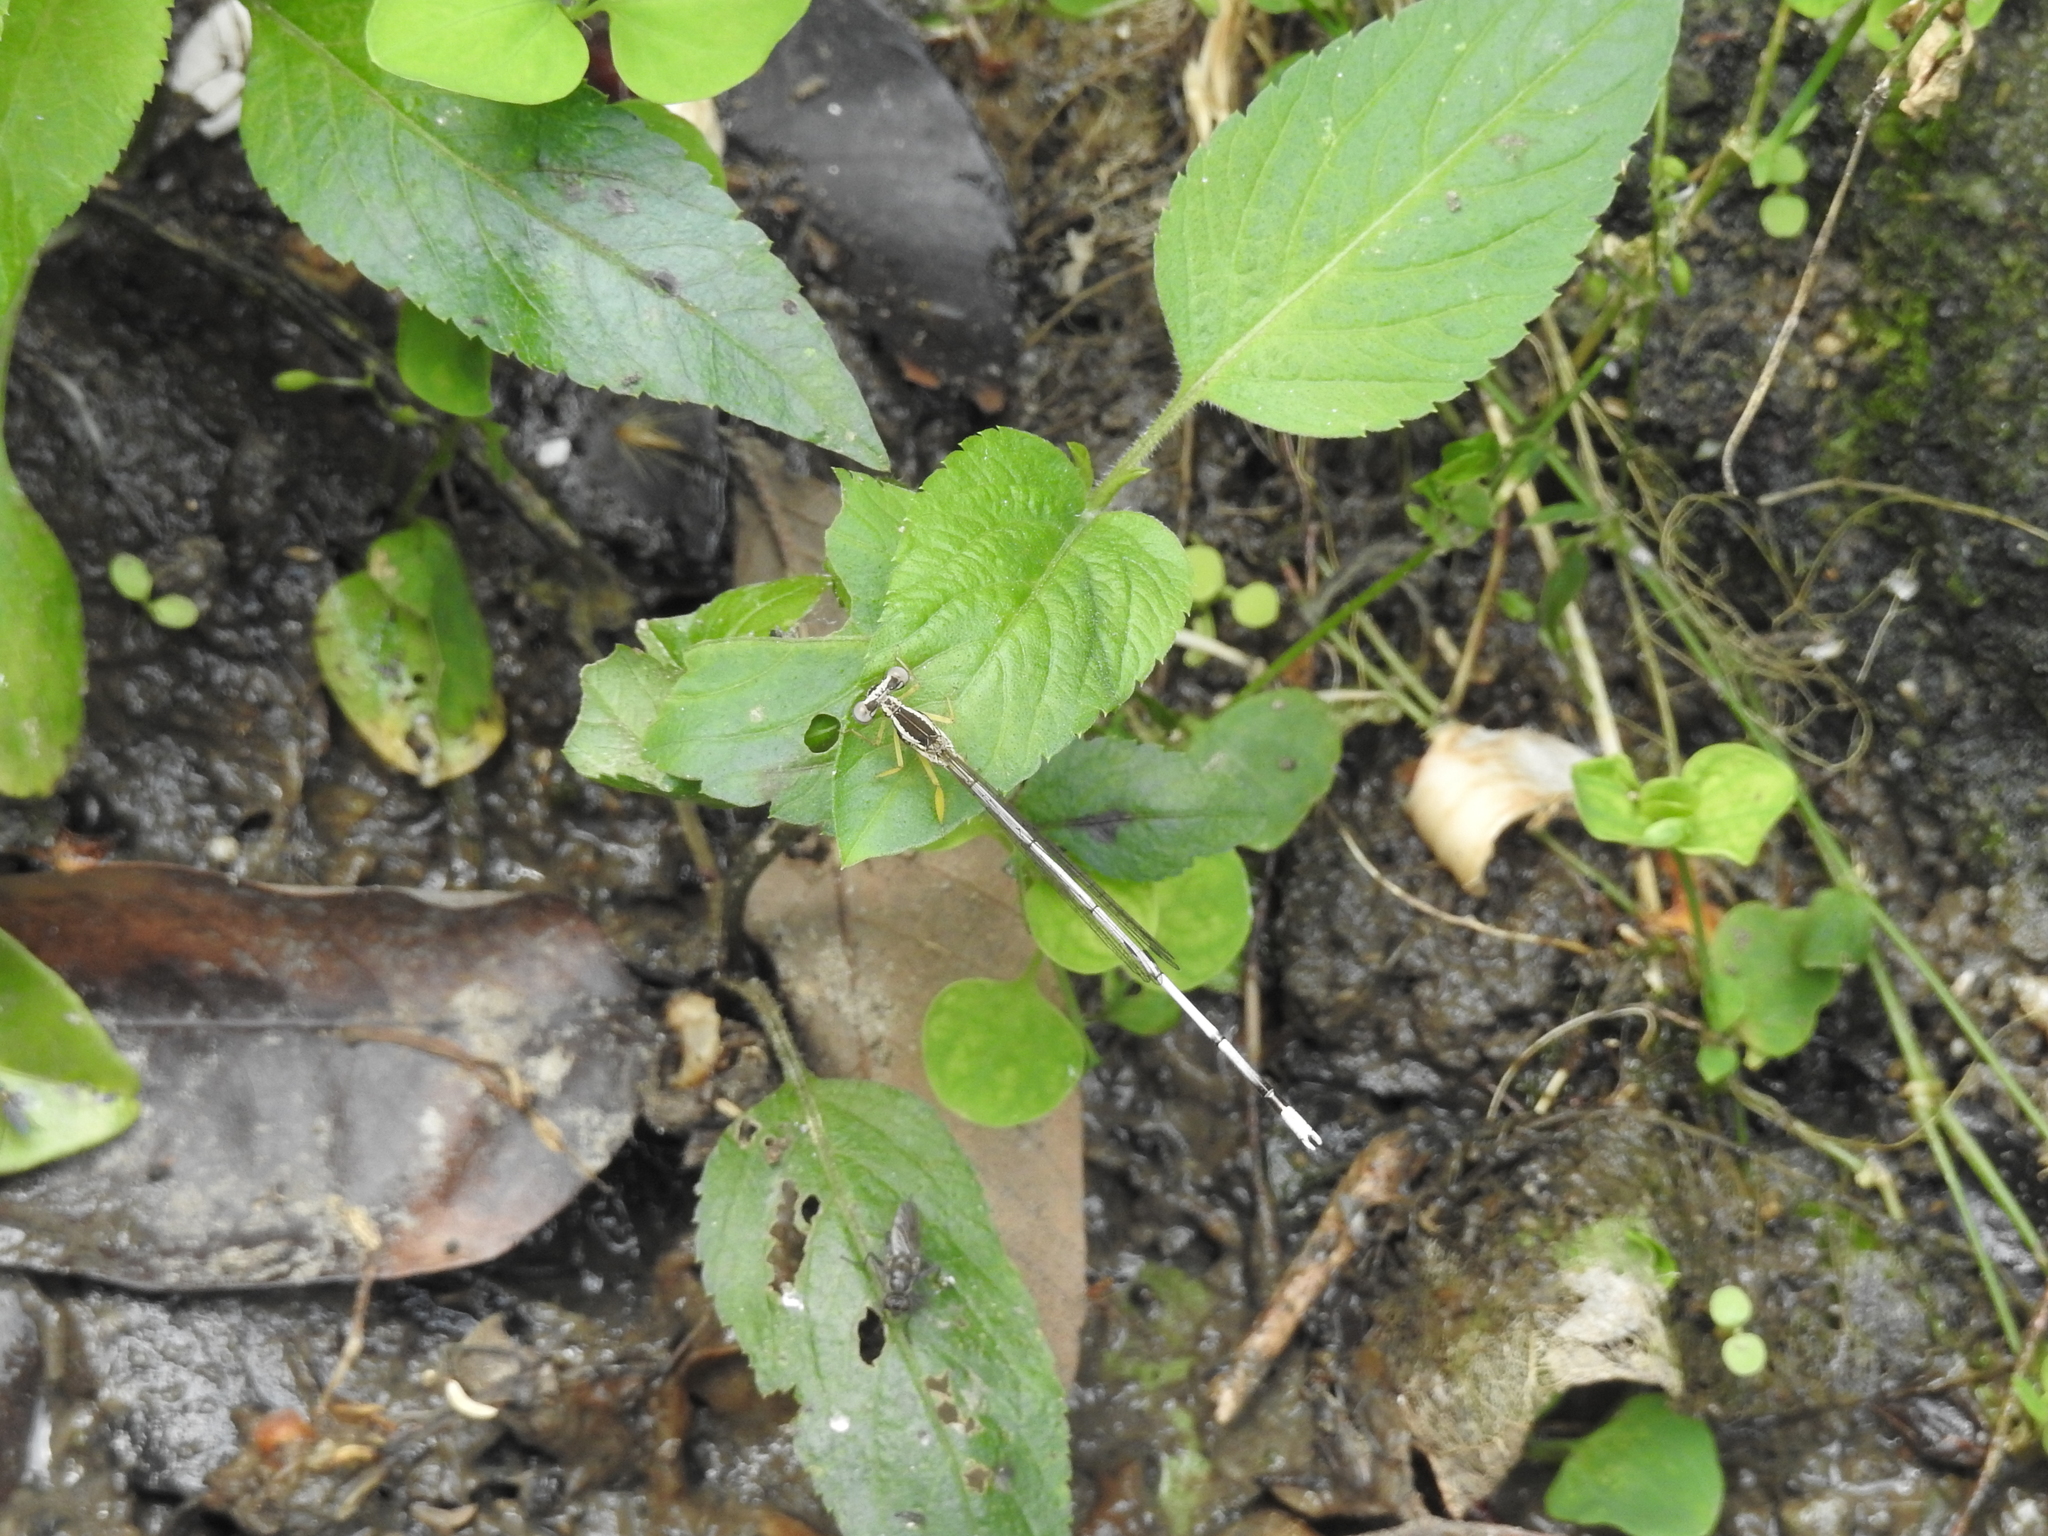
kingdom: Animalia
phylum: Arthropoda
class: Insecta
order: Odonata
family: Platycnemididae
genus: Copera
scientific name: Copera marginipes
